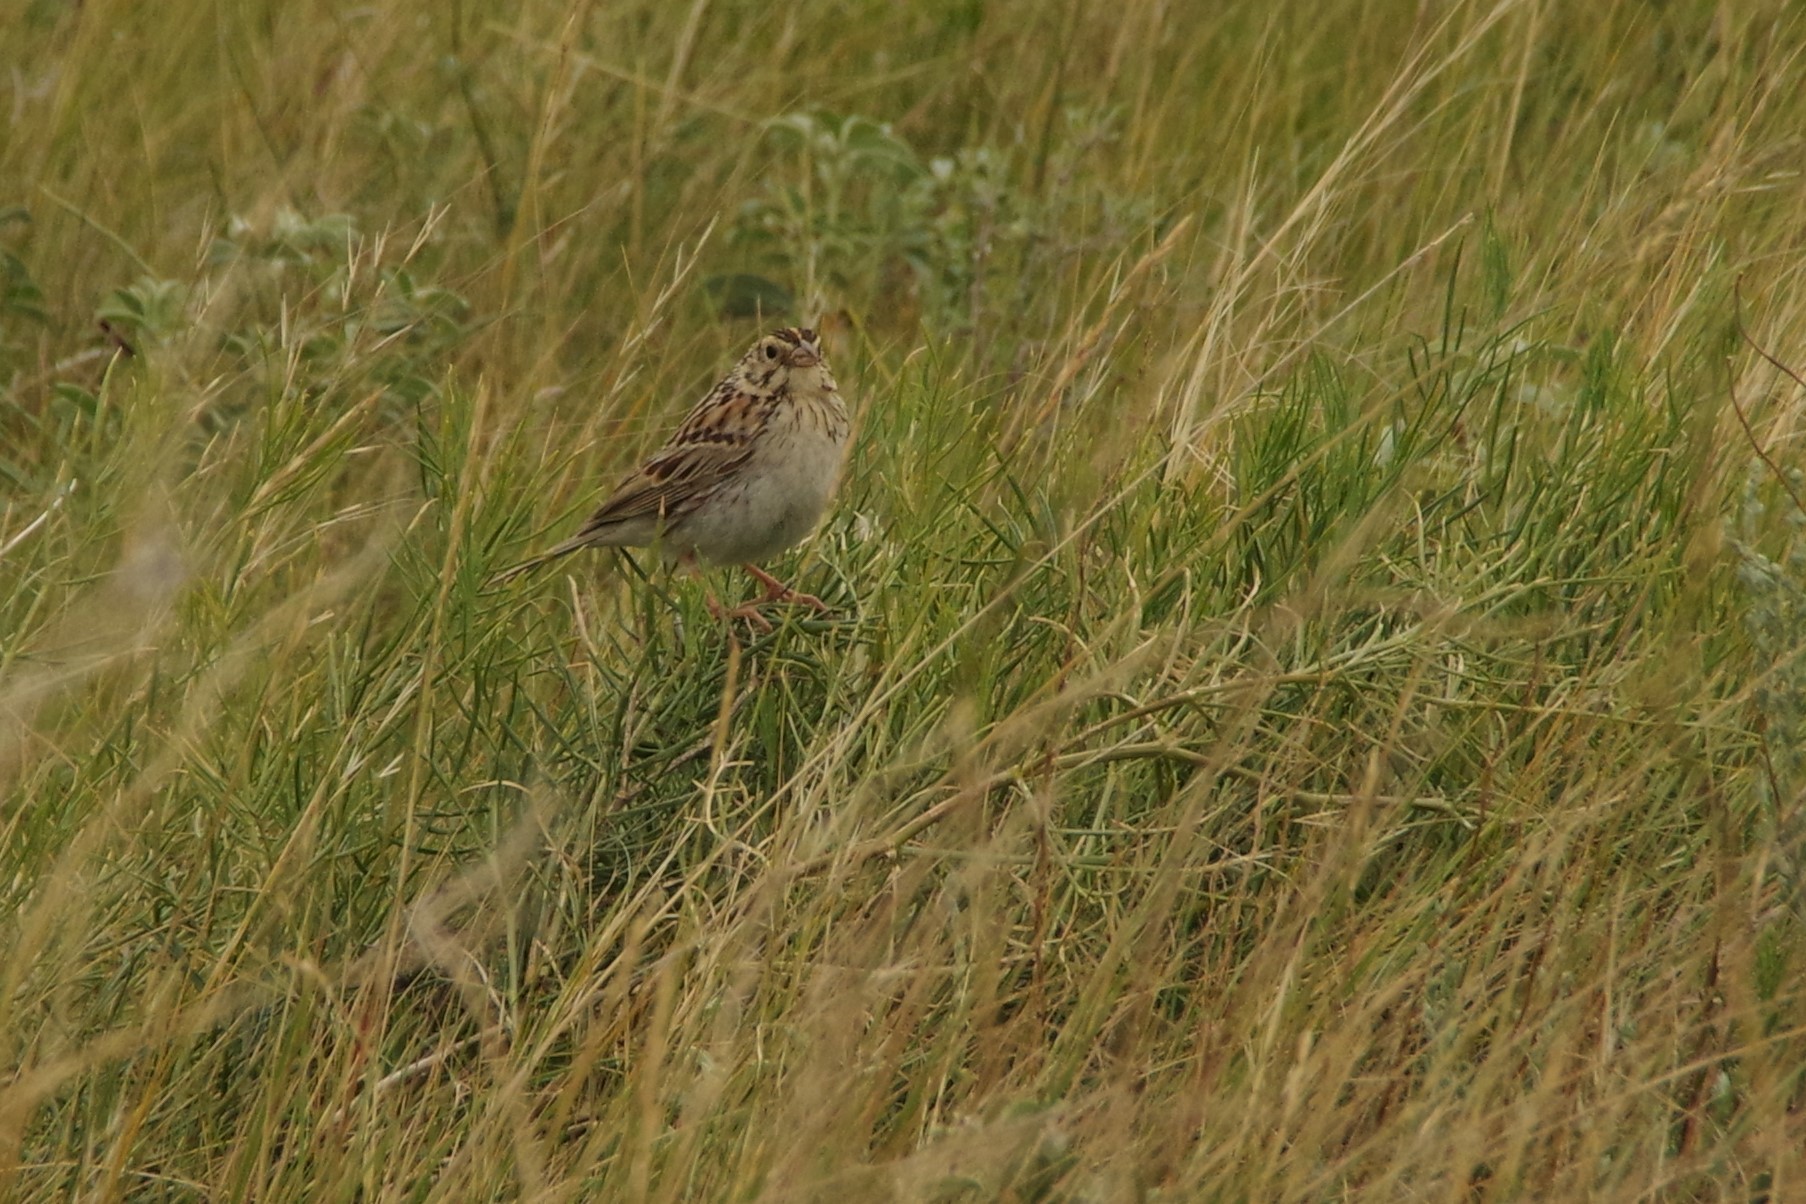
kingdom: Animalia
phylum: Chordata
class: Aves
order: Passeriformes
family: Passerellidae
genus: Centronyx
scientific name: Centronyx bairdii
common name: Baird's sparrow
